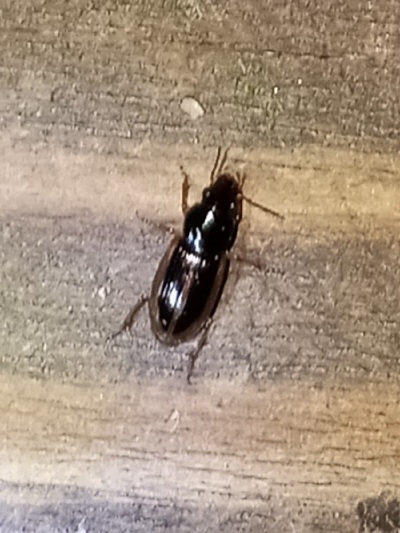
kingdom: Animalia
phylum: Arthropoda
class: Insecta
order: Coleoptera
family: Carabidae
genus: Stenolophus
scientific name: Stenolophus infuscatus
